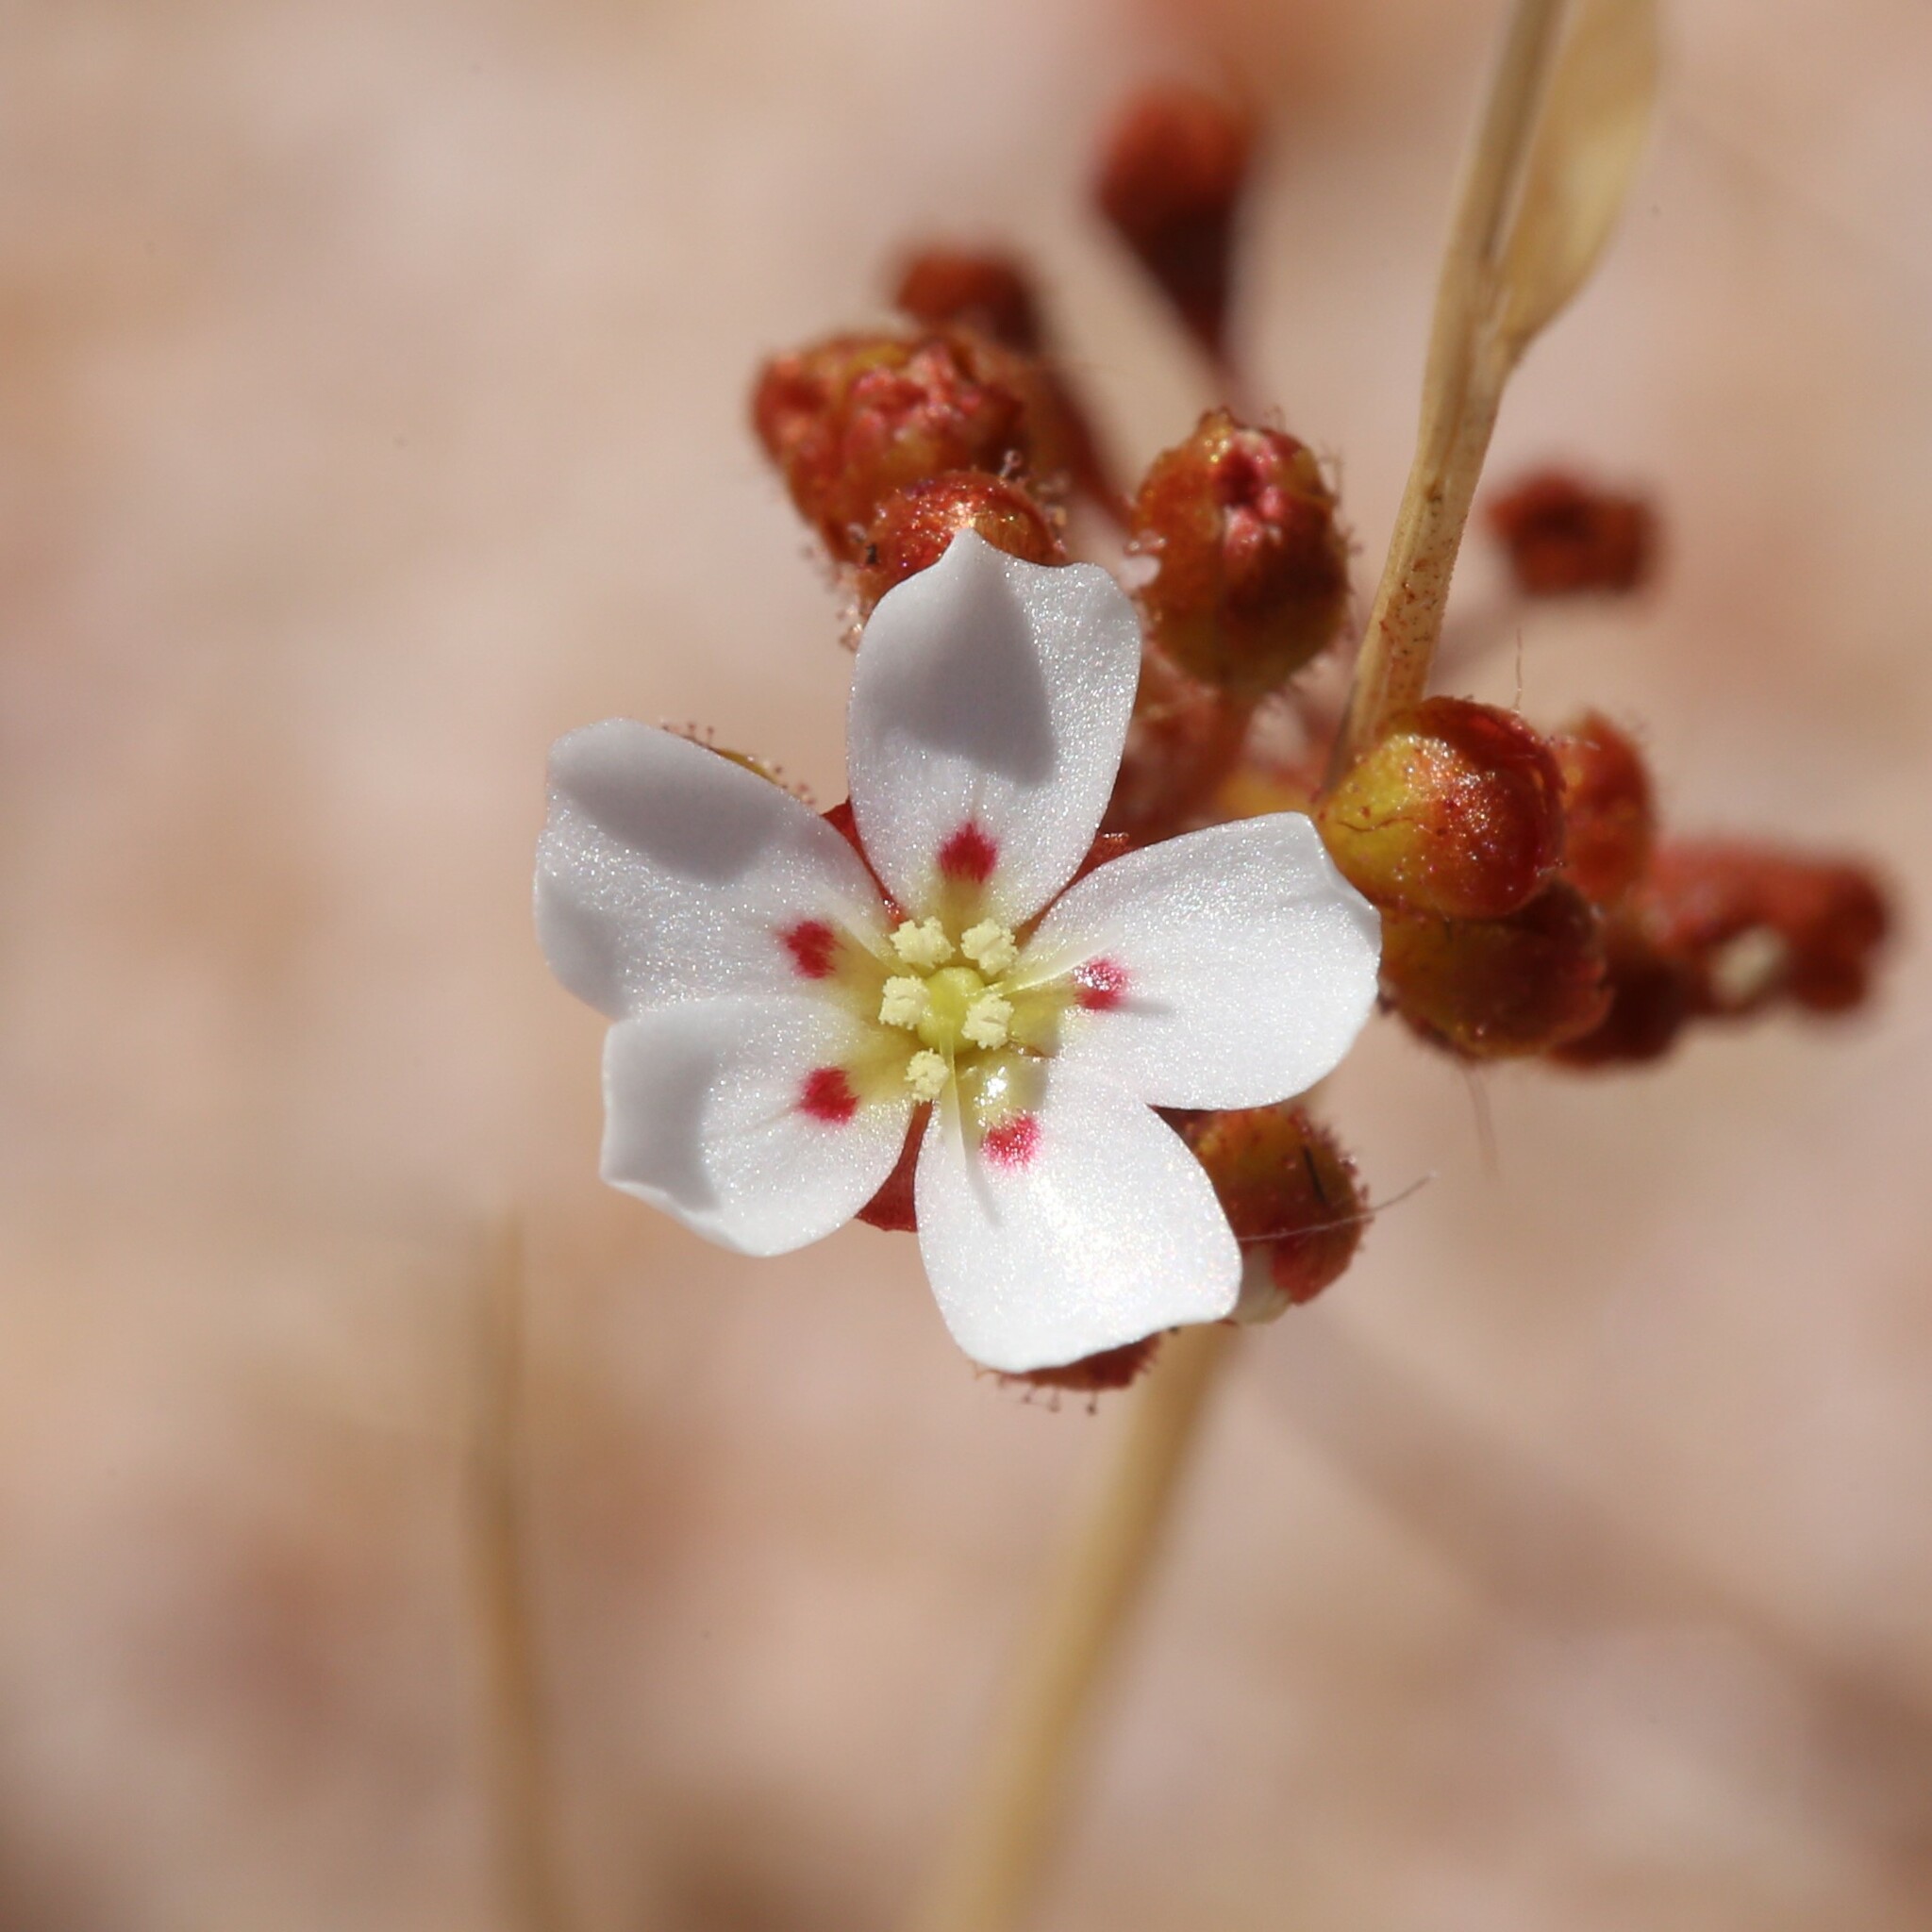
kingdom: Plantae
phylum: Tracheophyta
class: Magnoliopsida
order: Caryophyllales
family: Droseraceae
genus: Drosera
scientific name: Drosera eneabba
